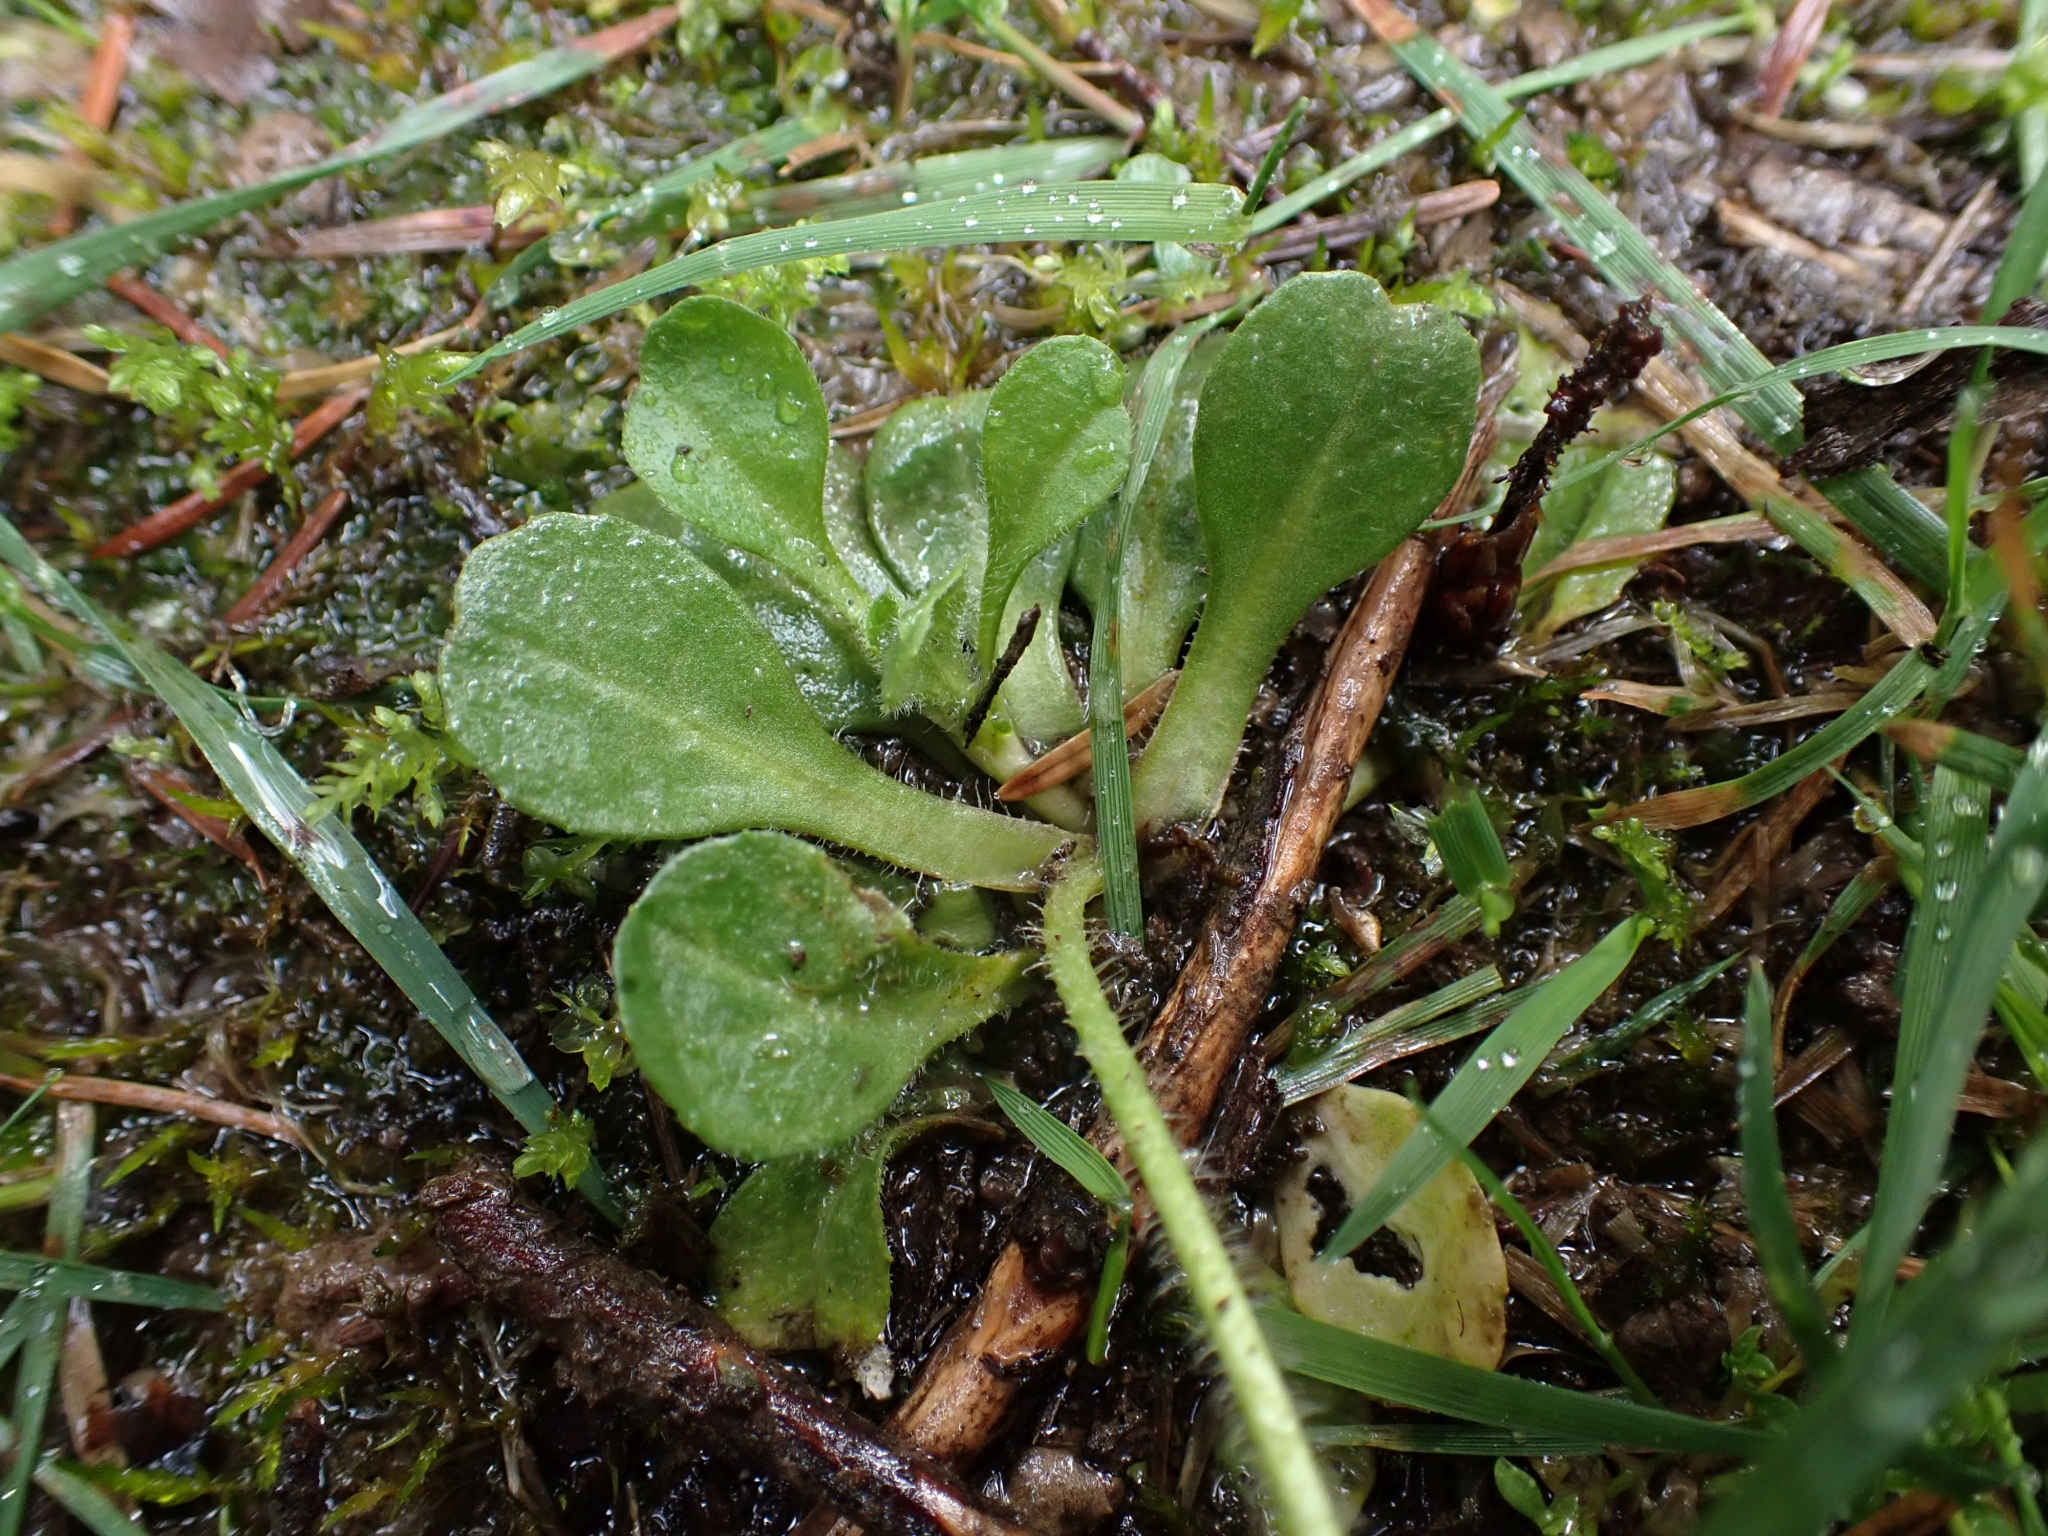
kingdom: Plantae
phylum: Tracheophyta
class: Magnoliopsida
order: Asterales
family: Asteraceae
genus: Bellis
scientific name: Bellis perennis
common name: Lawndaisy
